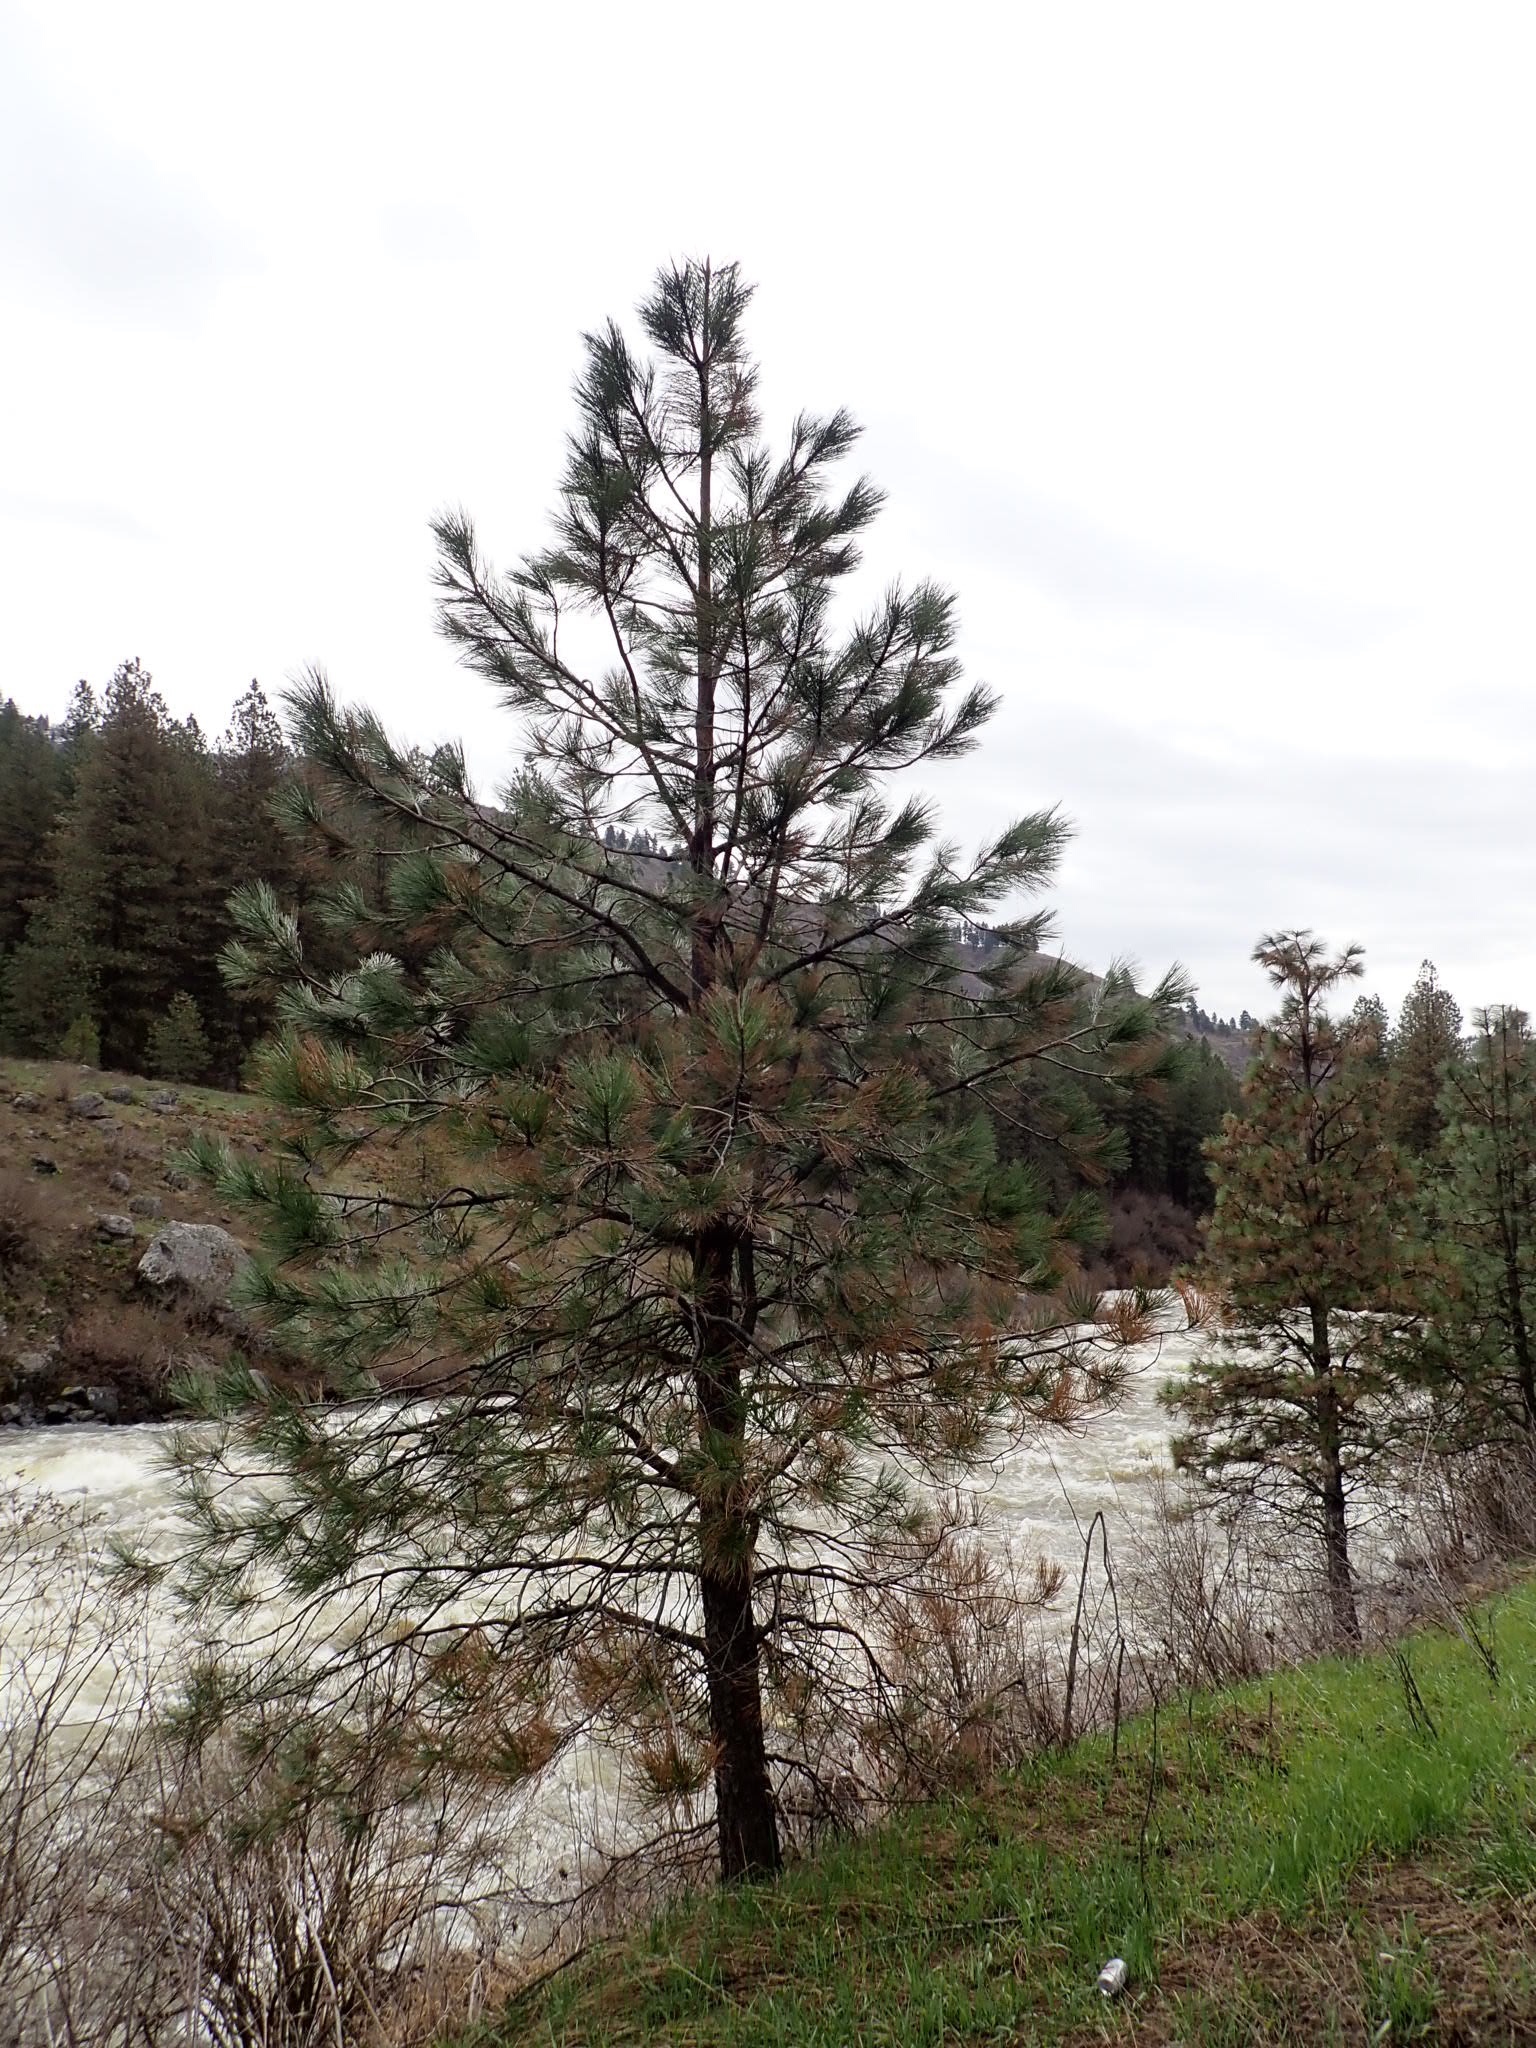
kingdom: Plantae
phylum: Tracheophyta
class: Pinopsida
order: Pinales
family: Pinaceae
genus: Pinus
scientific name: Pinus ponderosa
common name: Western yellow-pine
